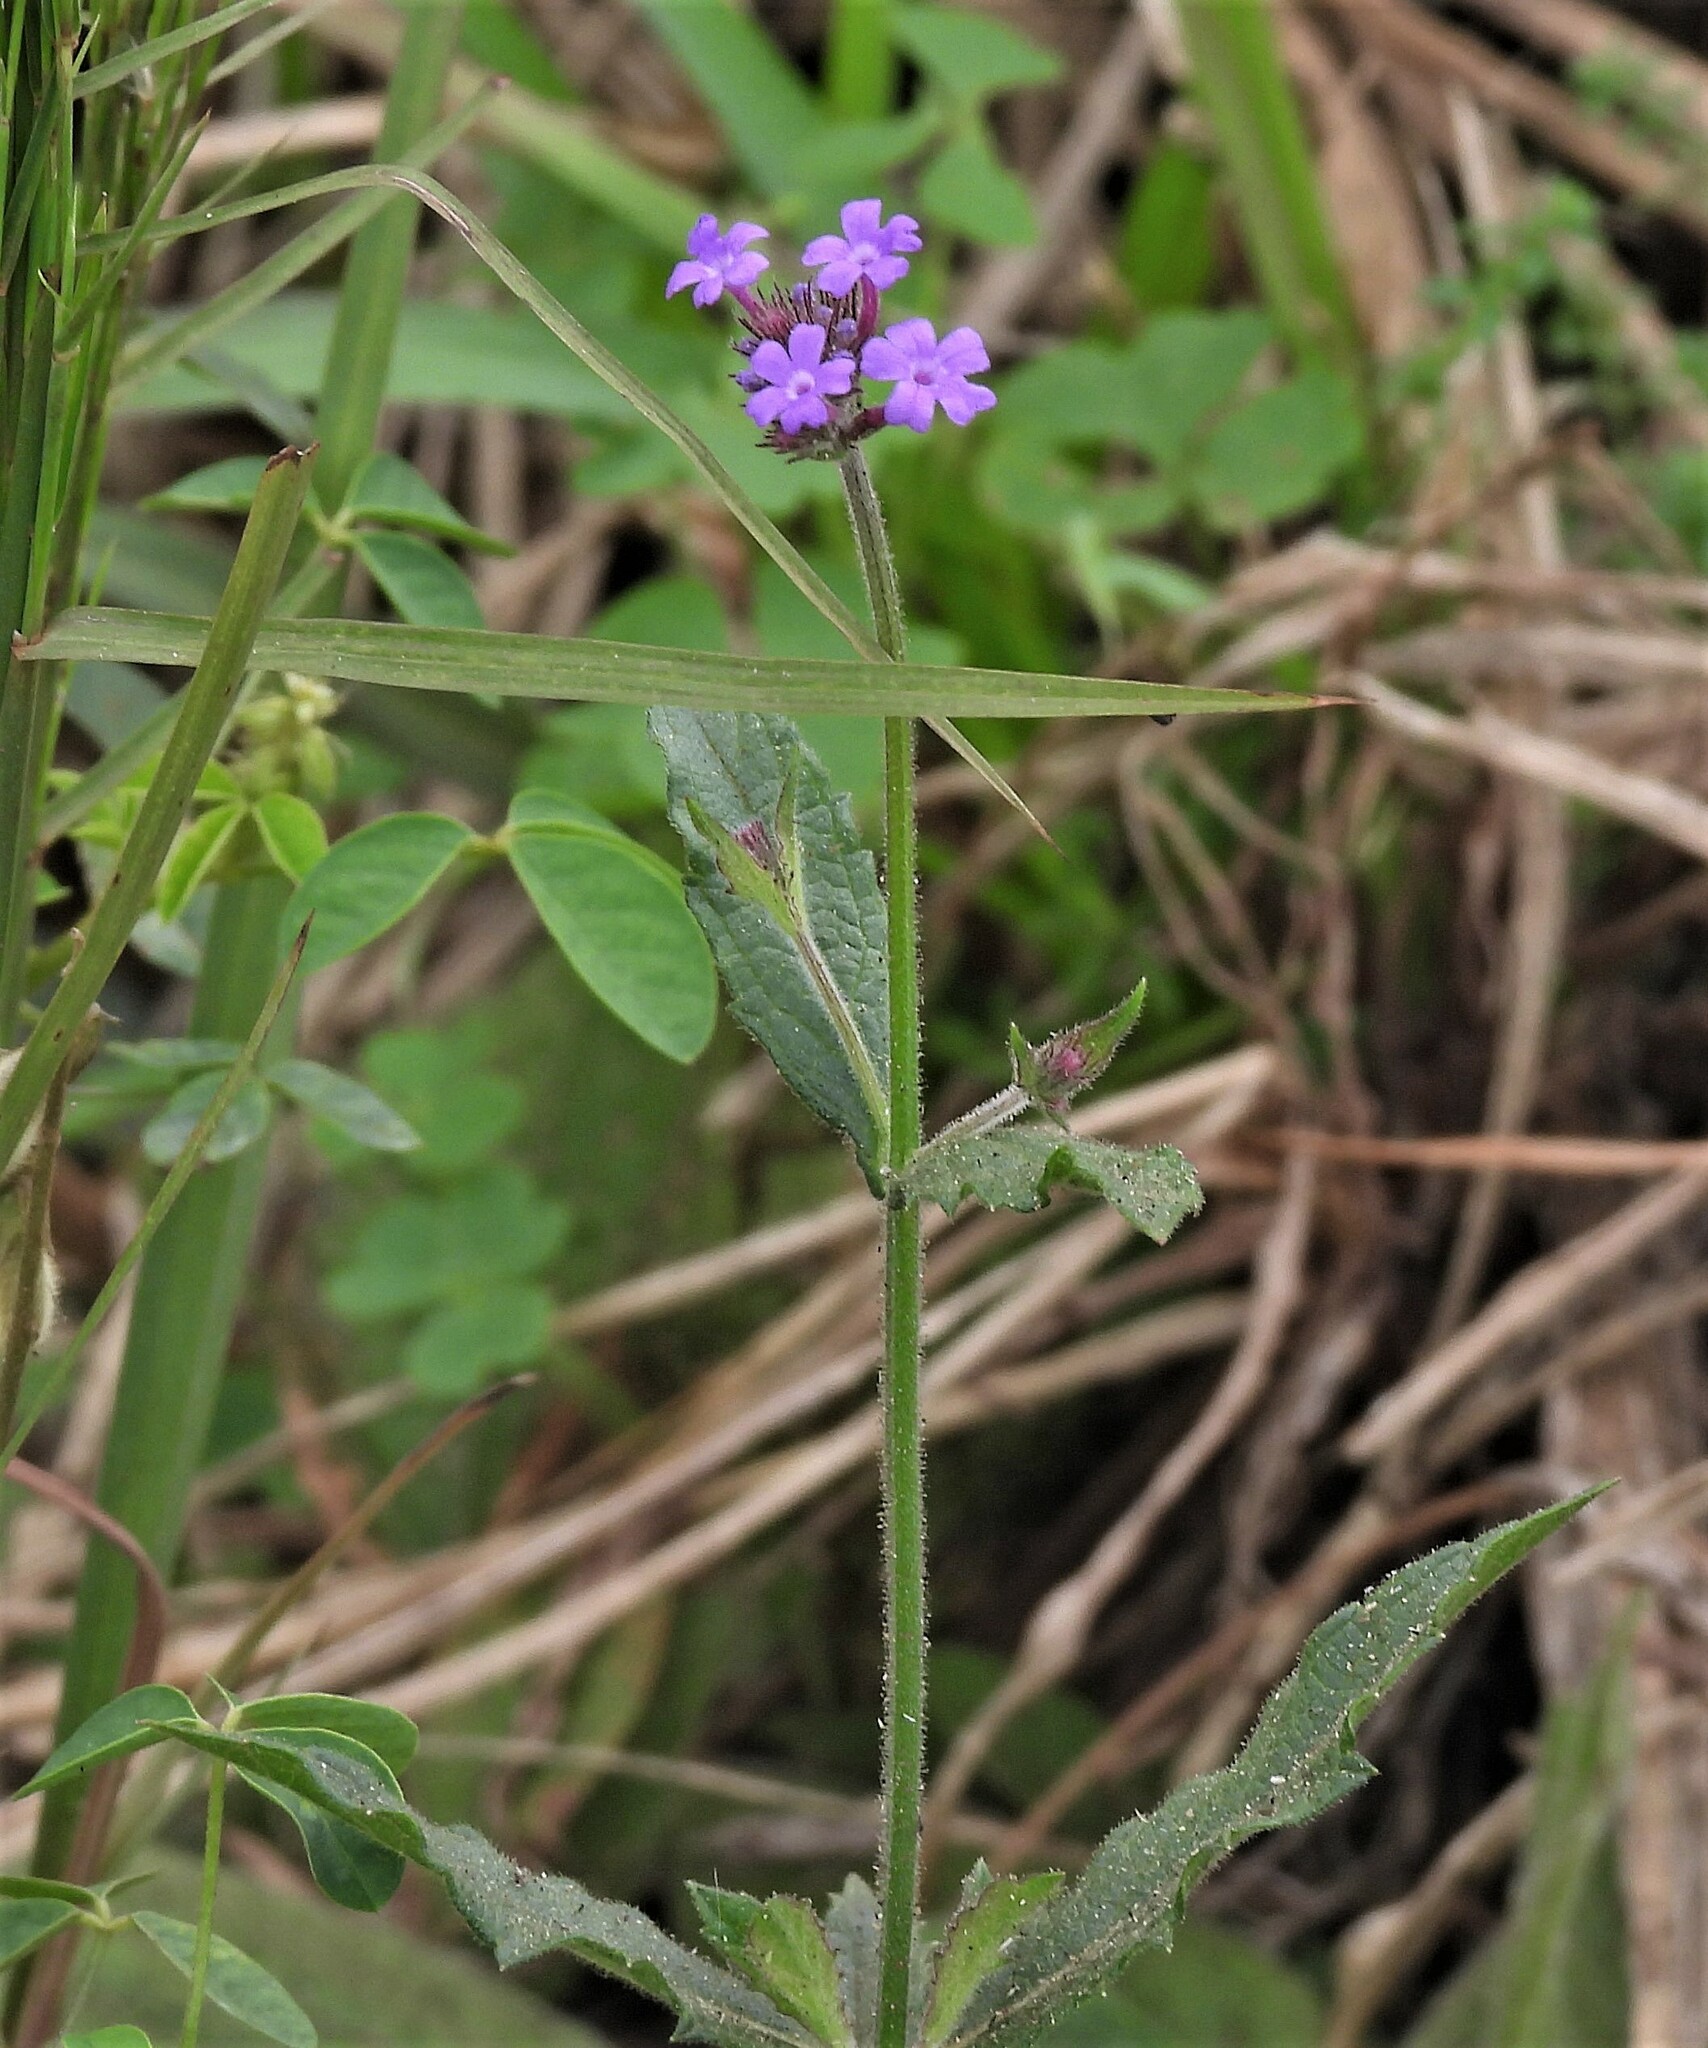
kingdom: Plantae
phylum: Tracheophyta
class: Magnoliopsida
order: Lamiales
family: Verbenaceae
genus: Verbena
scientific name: Verbena rigida
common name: Slender vervain
